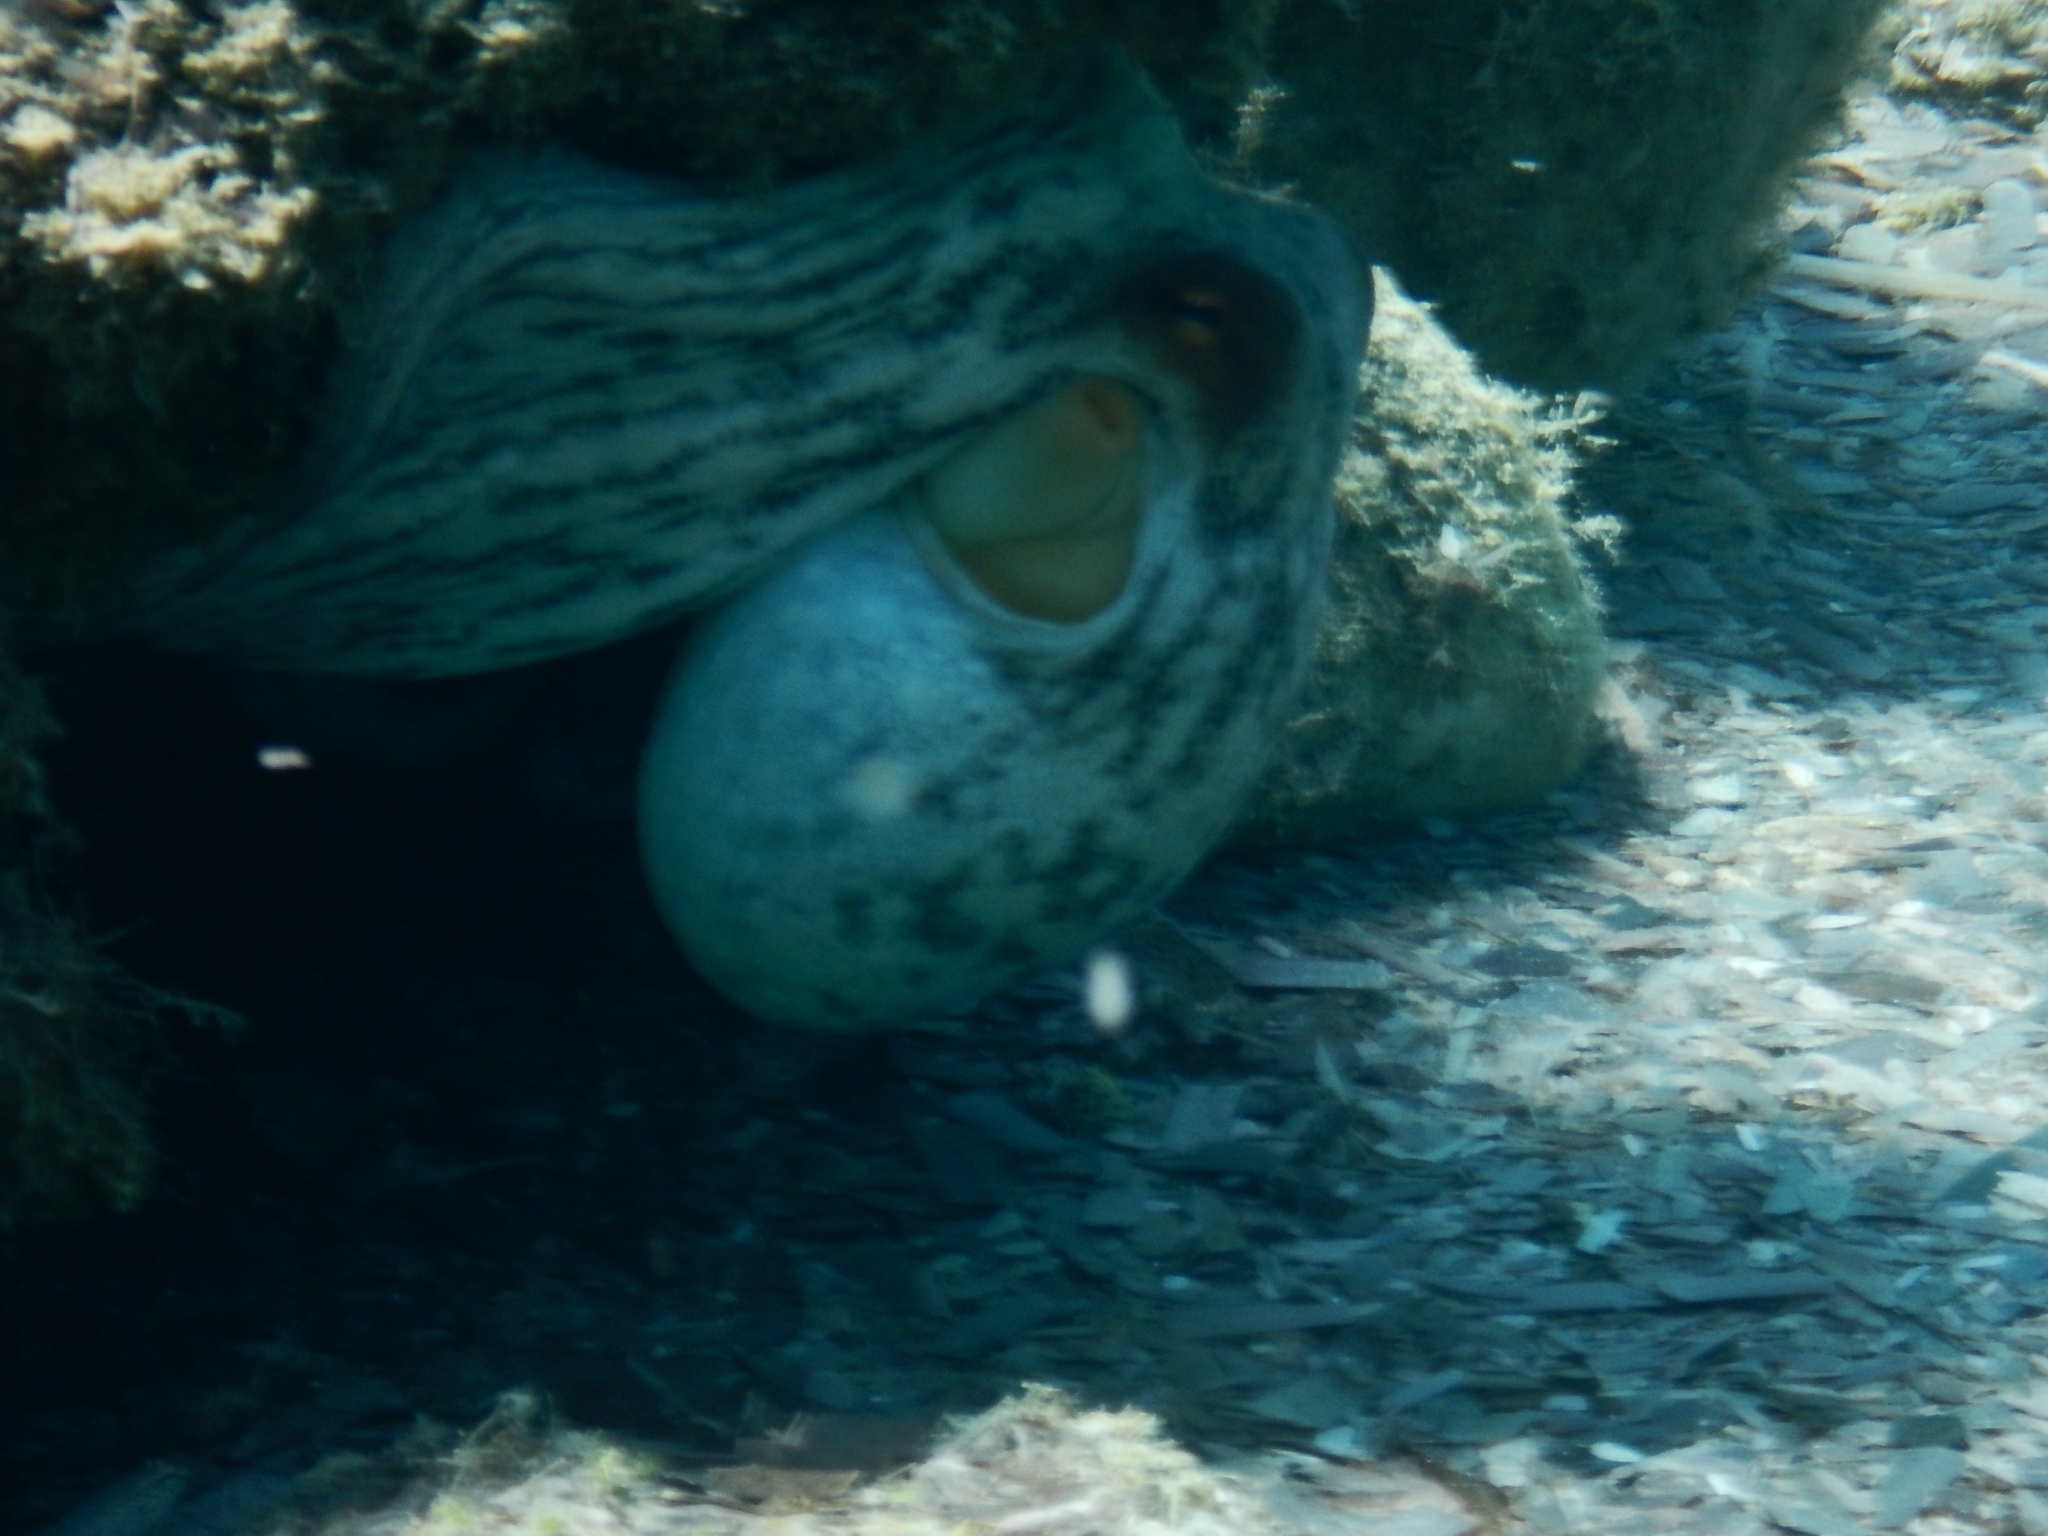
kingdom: Animalia
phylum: Mollusca
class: Cephalopoda
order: Octopoda
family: Octopodidae
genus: Octopus
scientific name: Octopus vulgaris
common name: Common octopus
